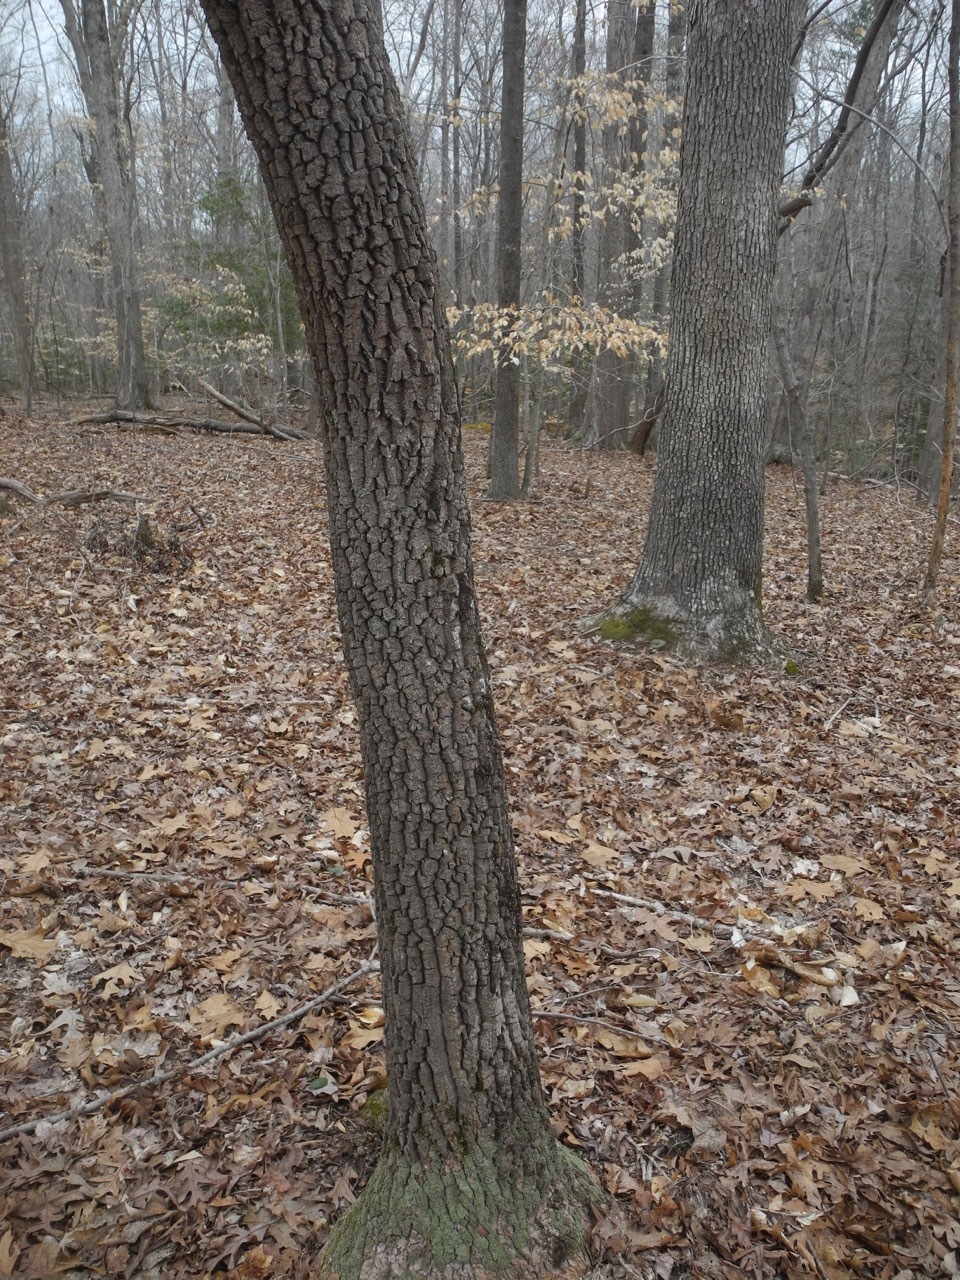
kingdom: Plantae
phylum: Tracheophyta
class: Magnoliopsida
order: Ericales
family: Ericaceae
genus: Oxydendrum
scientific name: Oxydendrum arboreum
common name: Sourwood
